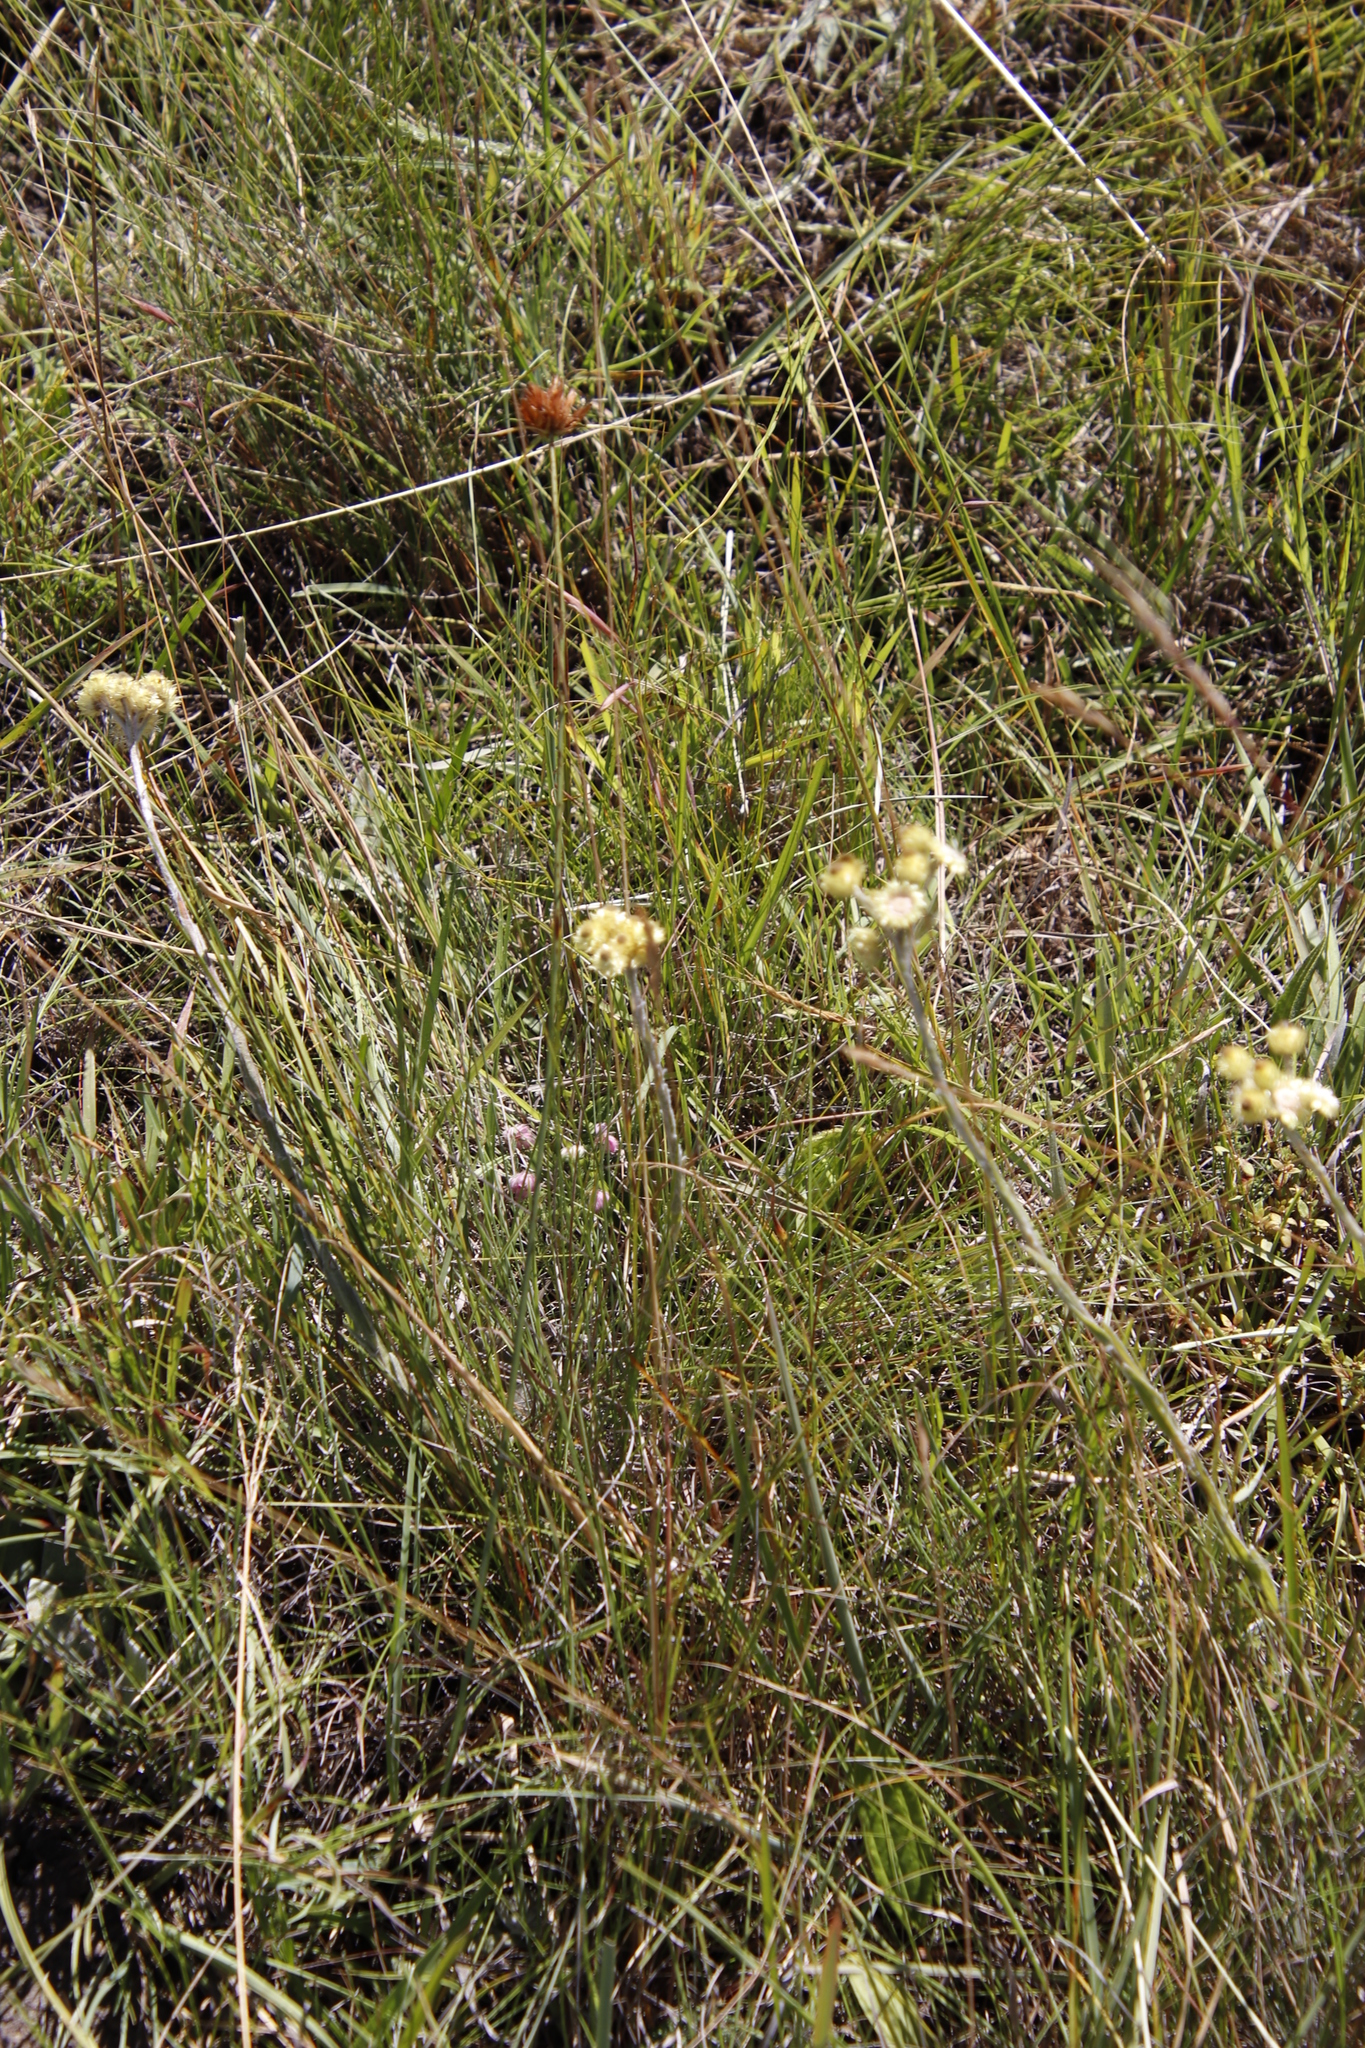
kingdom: Plantae
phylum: Tracheophyta
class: Liliopsida
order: Poales
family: Cyperaceae
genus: Cyperus
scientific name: Cyperus sphaerocephalus
